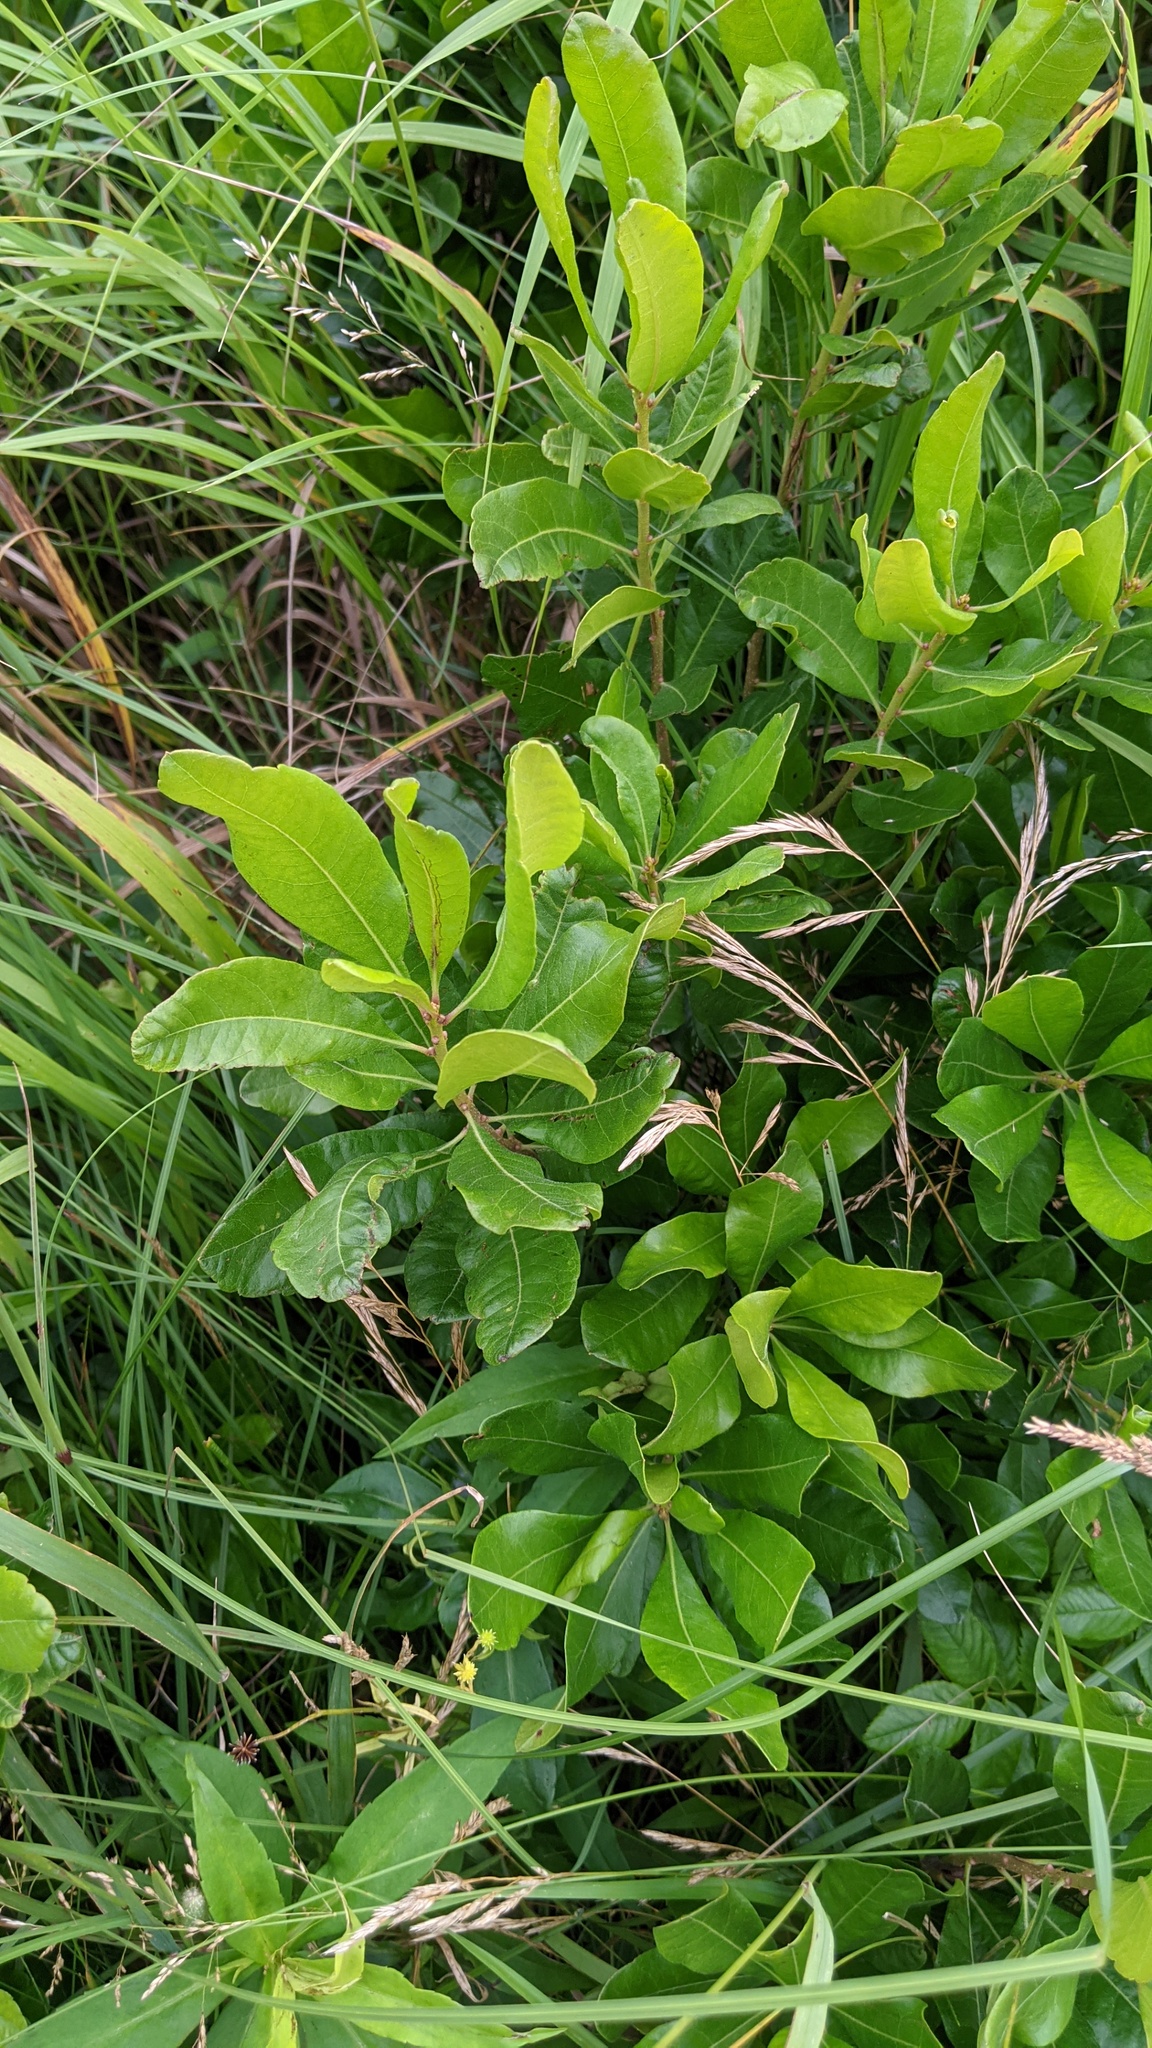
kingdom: Plantae
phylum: Tracheophyta
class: Magnoliopsida
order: Fagales
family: Myricaceae
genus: Morella
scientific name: Morella pensylvanica
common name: Northern bayberry
